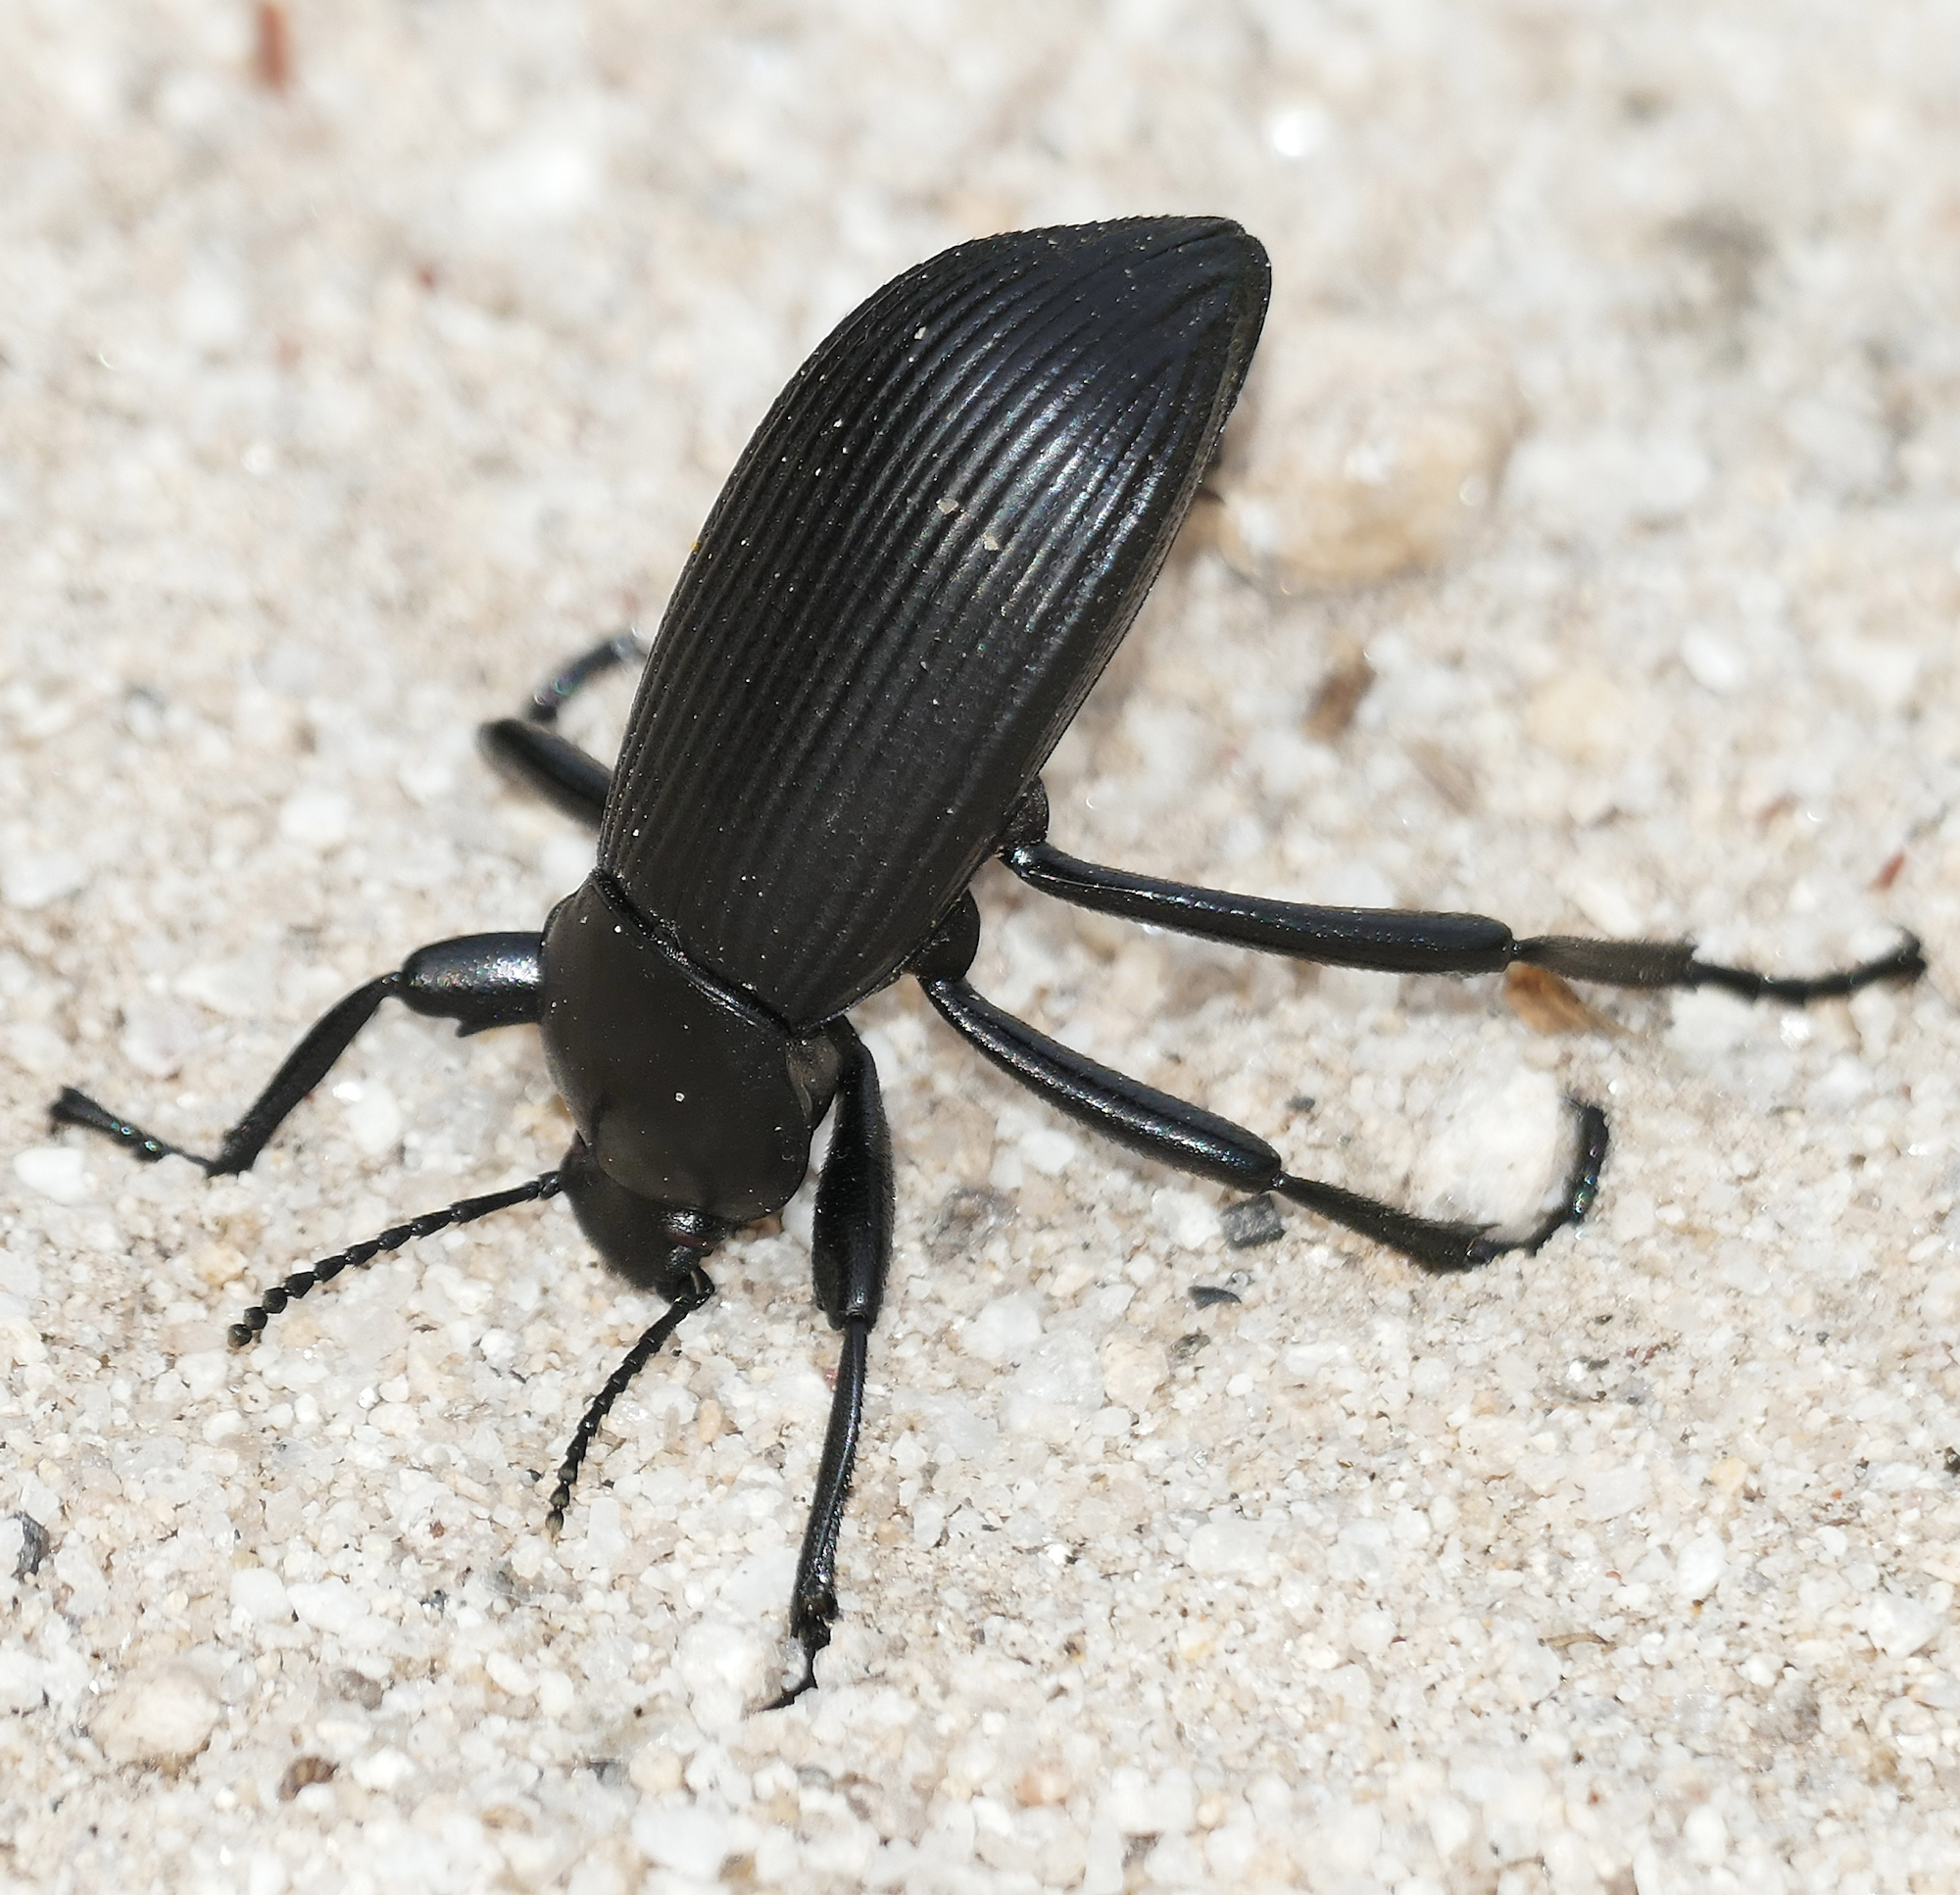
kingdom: Animalia
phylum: Arthropoda
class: Insecta
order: Coleoptera
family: Tenebrionidae
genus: Eleodes
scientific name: Eleodes obscura
